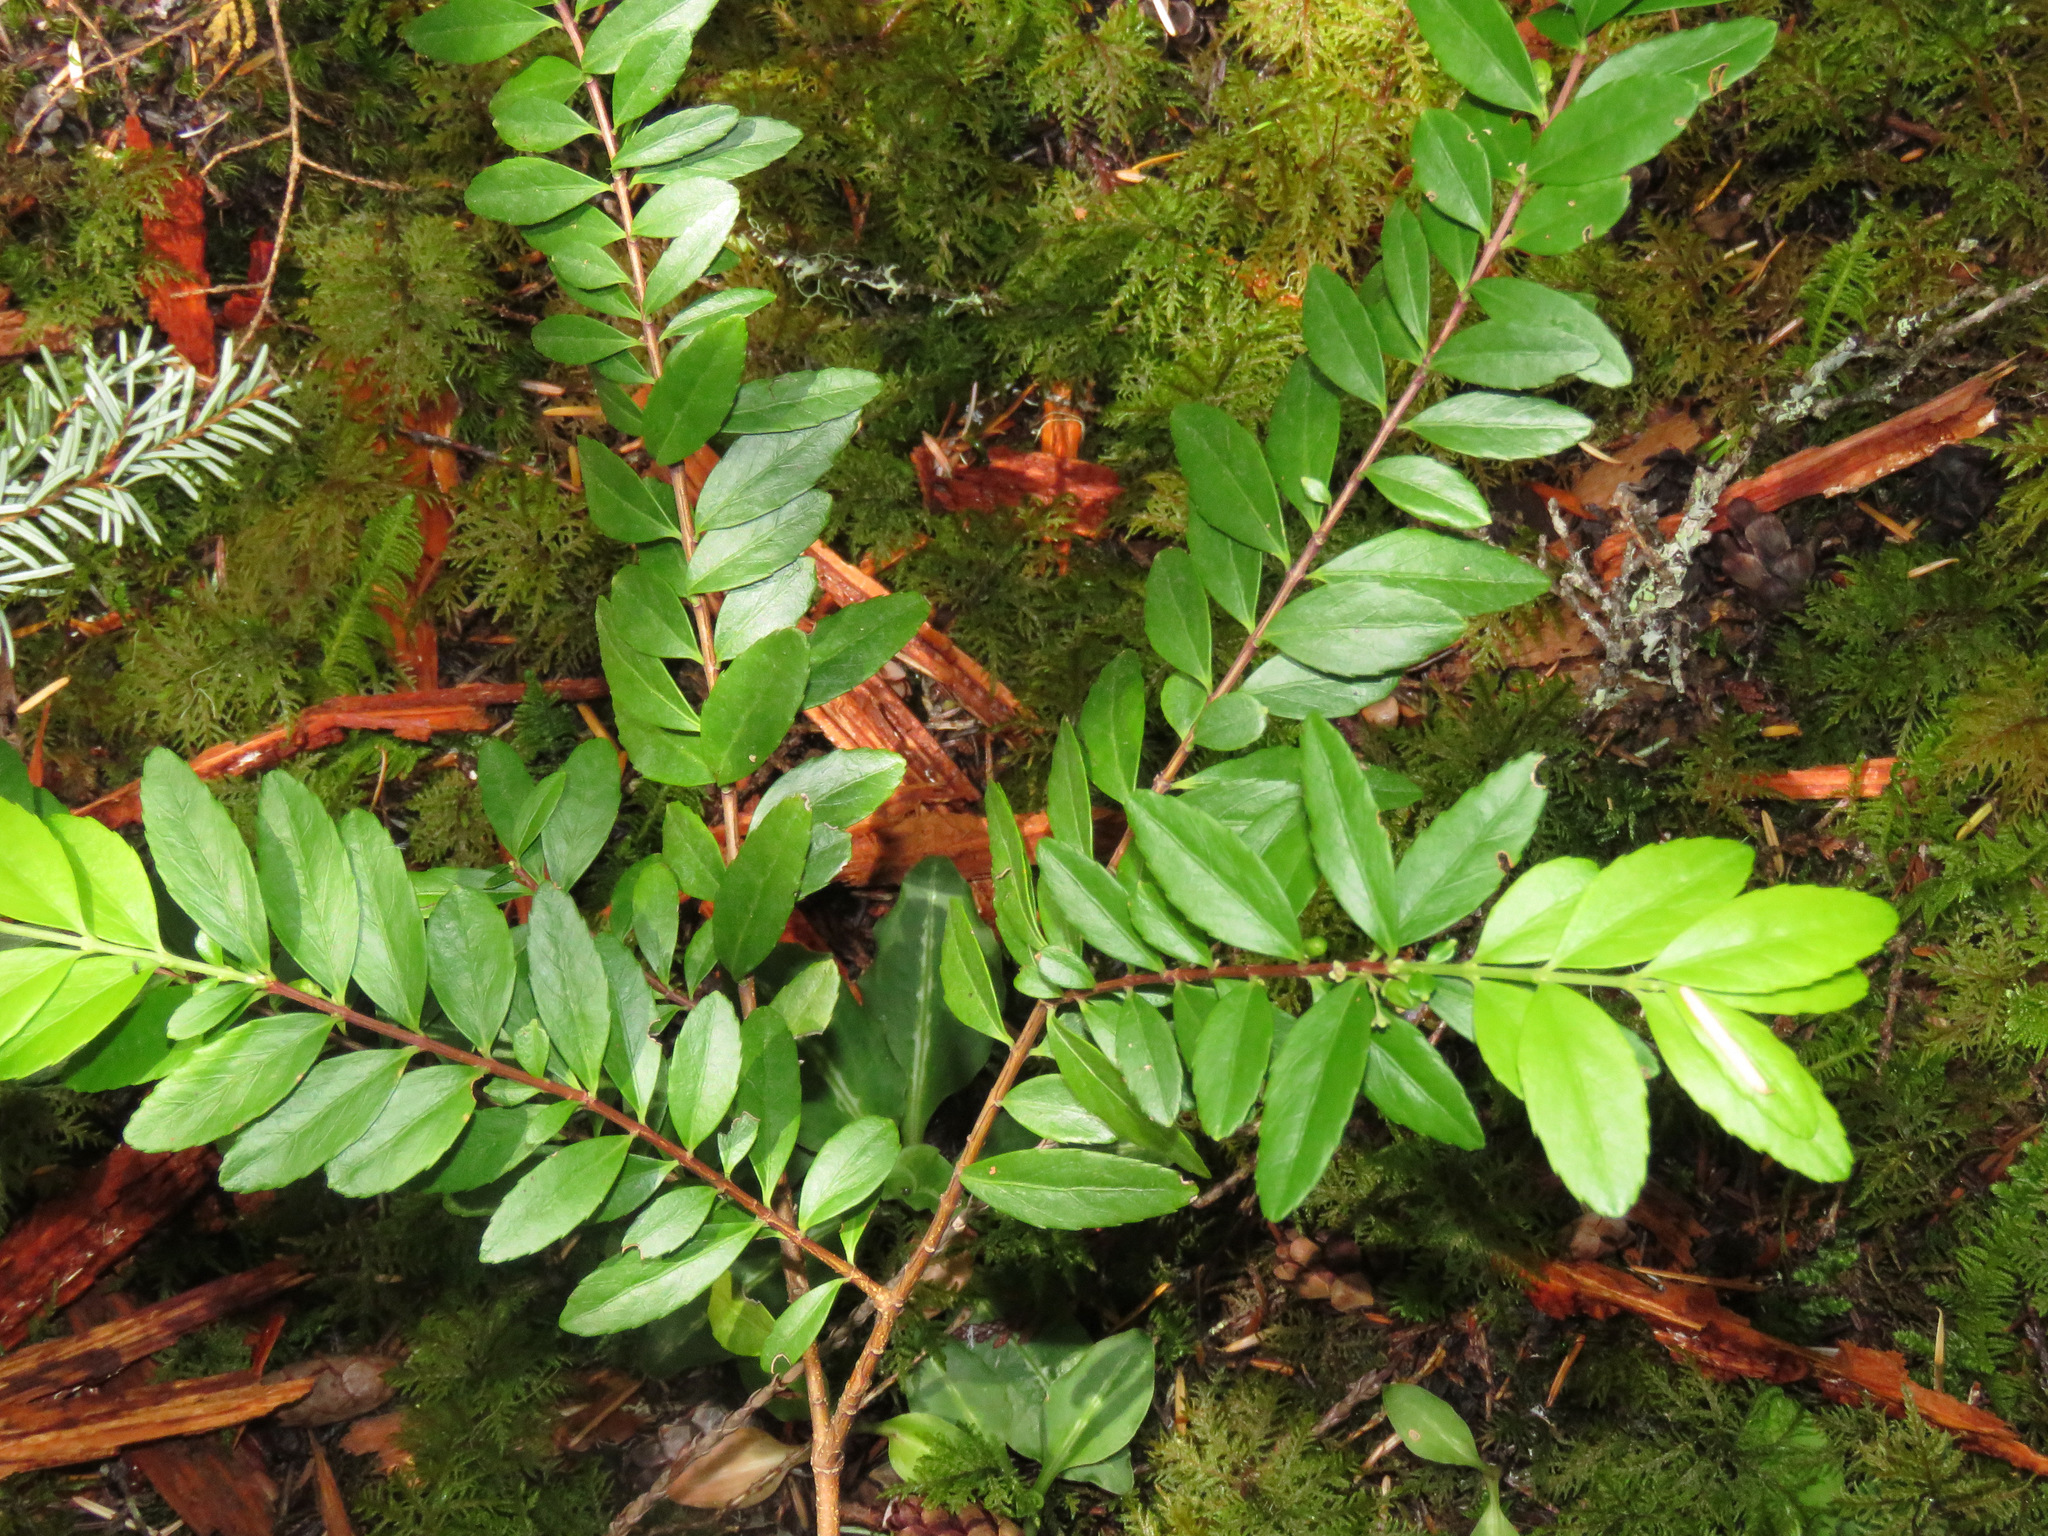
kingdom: Plantae
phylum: Tracheophyta
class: Magnoliopsida
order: Celastrales
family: Celastraceae
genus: Paxistima
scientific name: Paxistima myrsinites
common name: Mountain-lover
